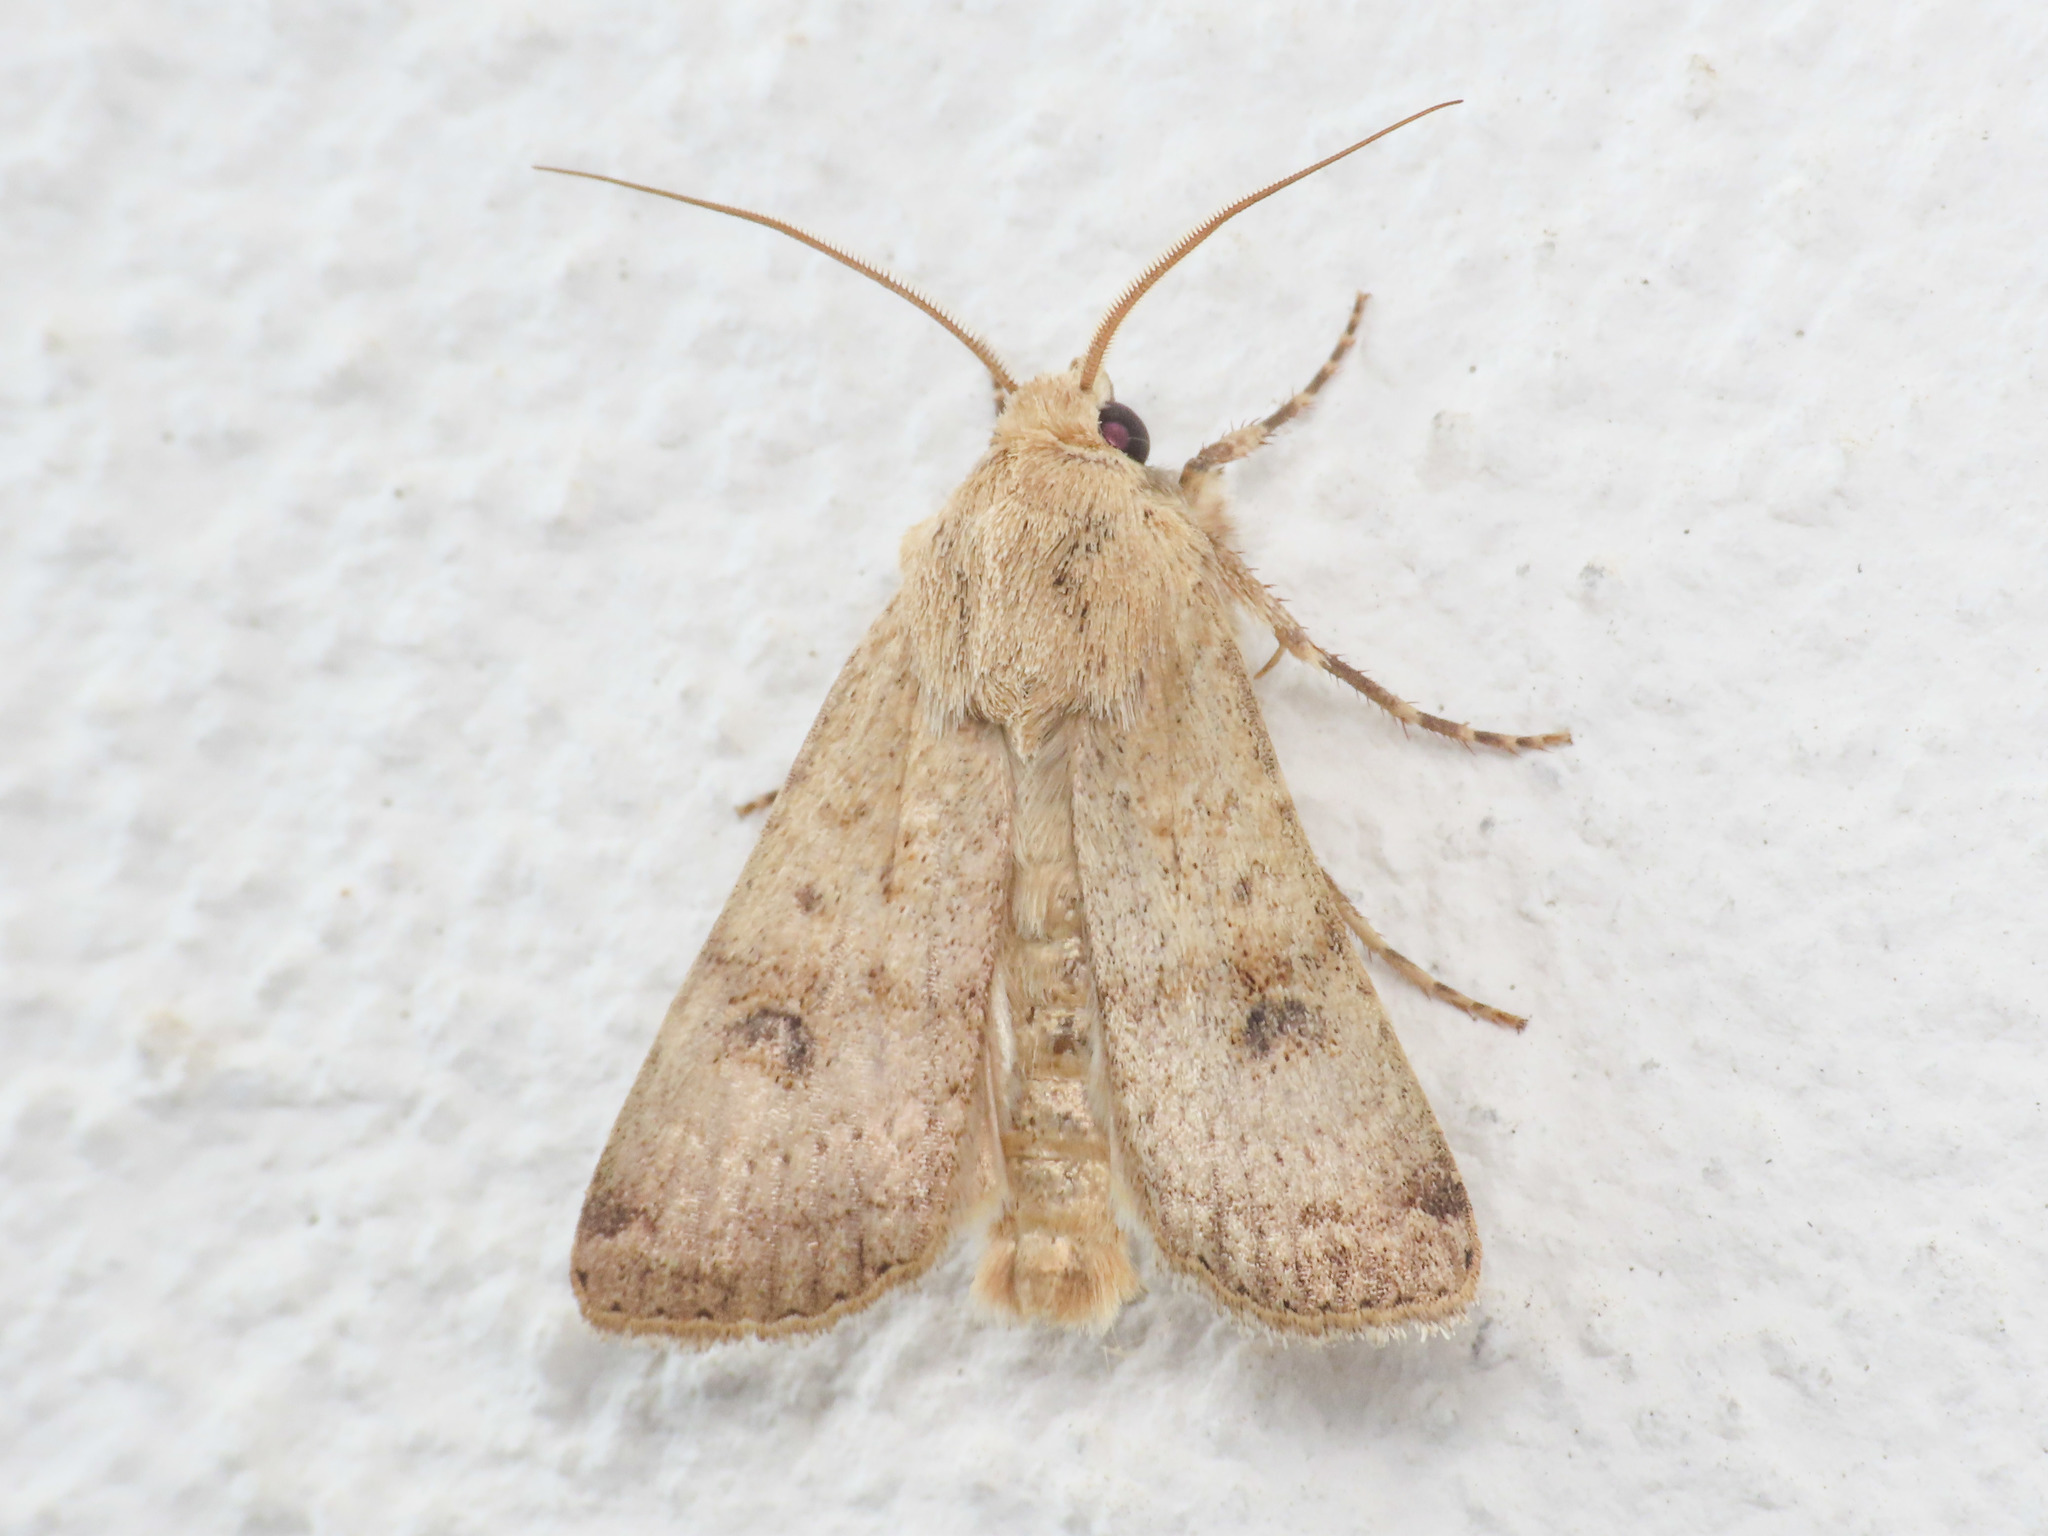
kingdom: Animalia
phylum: Arthropoda
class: Insecta
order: Lepidoptera
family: Noctuidae
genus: Agrotis
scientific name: Agrotis trux
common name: Crescent dart
